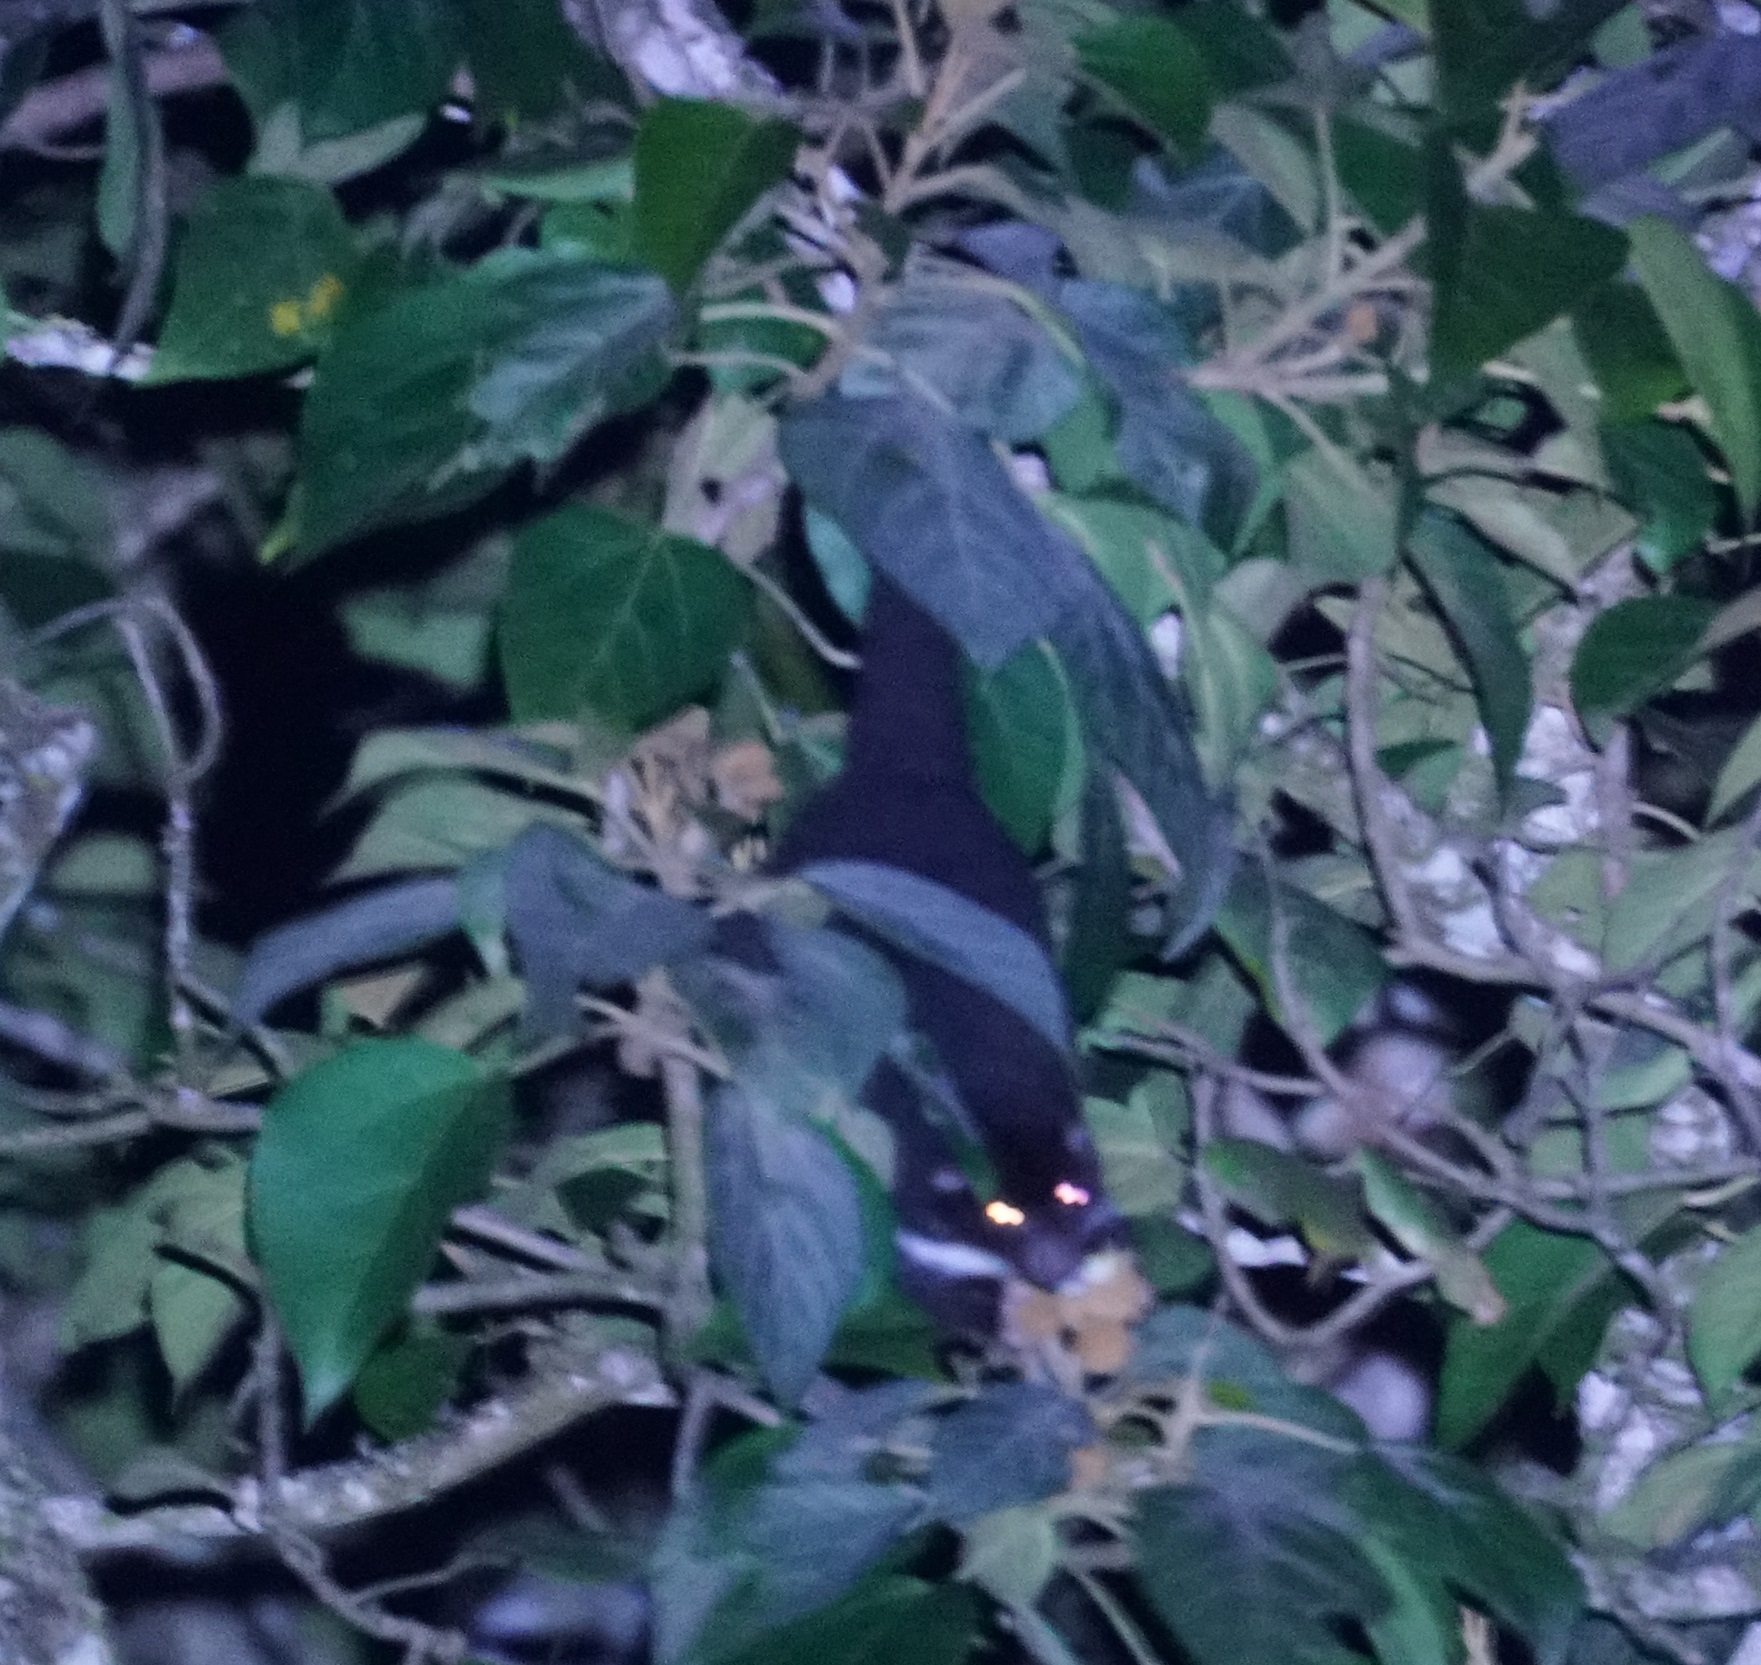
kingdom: Animalia
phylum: Chordata
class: Mammalia
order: Diprotodontia
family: Pseudocheiridae
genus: Pseudochirulus
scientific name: Pseudochirulus herbertensis
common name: Herbert river ringtail
